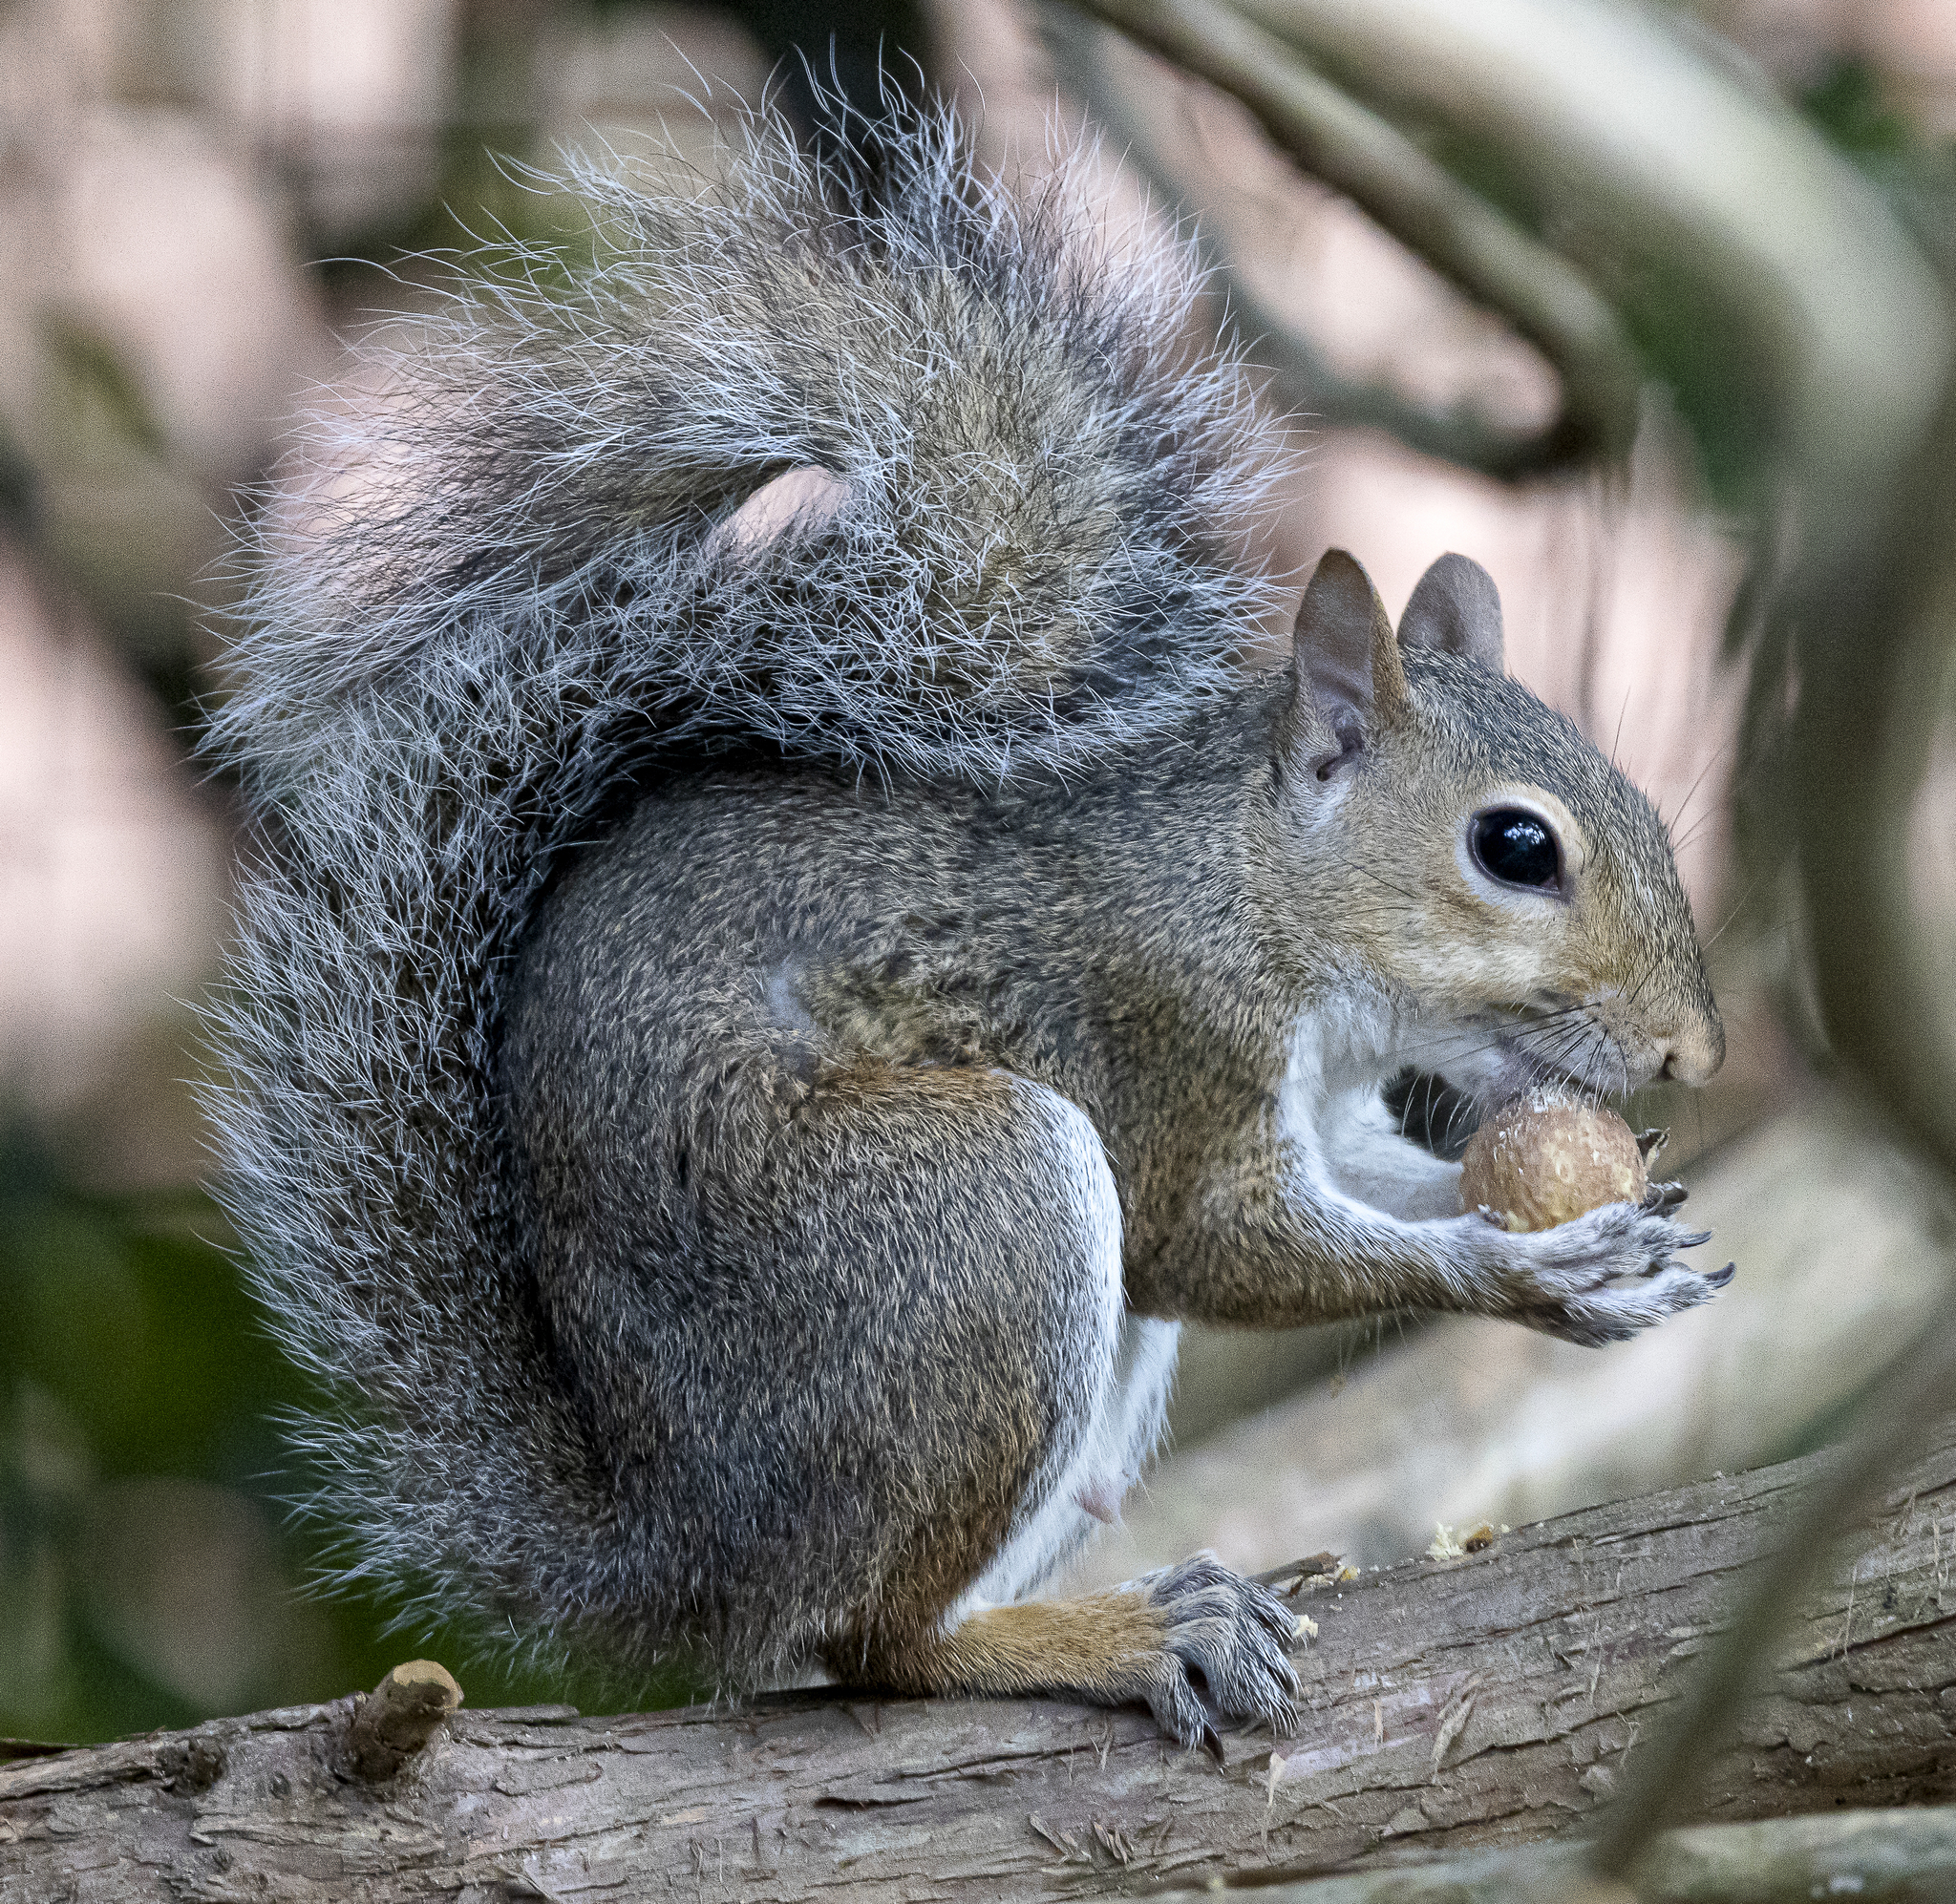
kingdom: Animalia
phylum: Chordata
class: Mammalia
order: Rodentia
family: Sciuridae
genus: Sciurus
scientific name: Sciurus carolinensis
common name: Eastern gray squirrel
